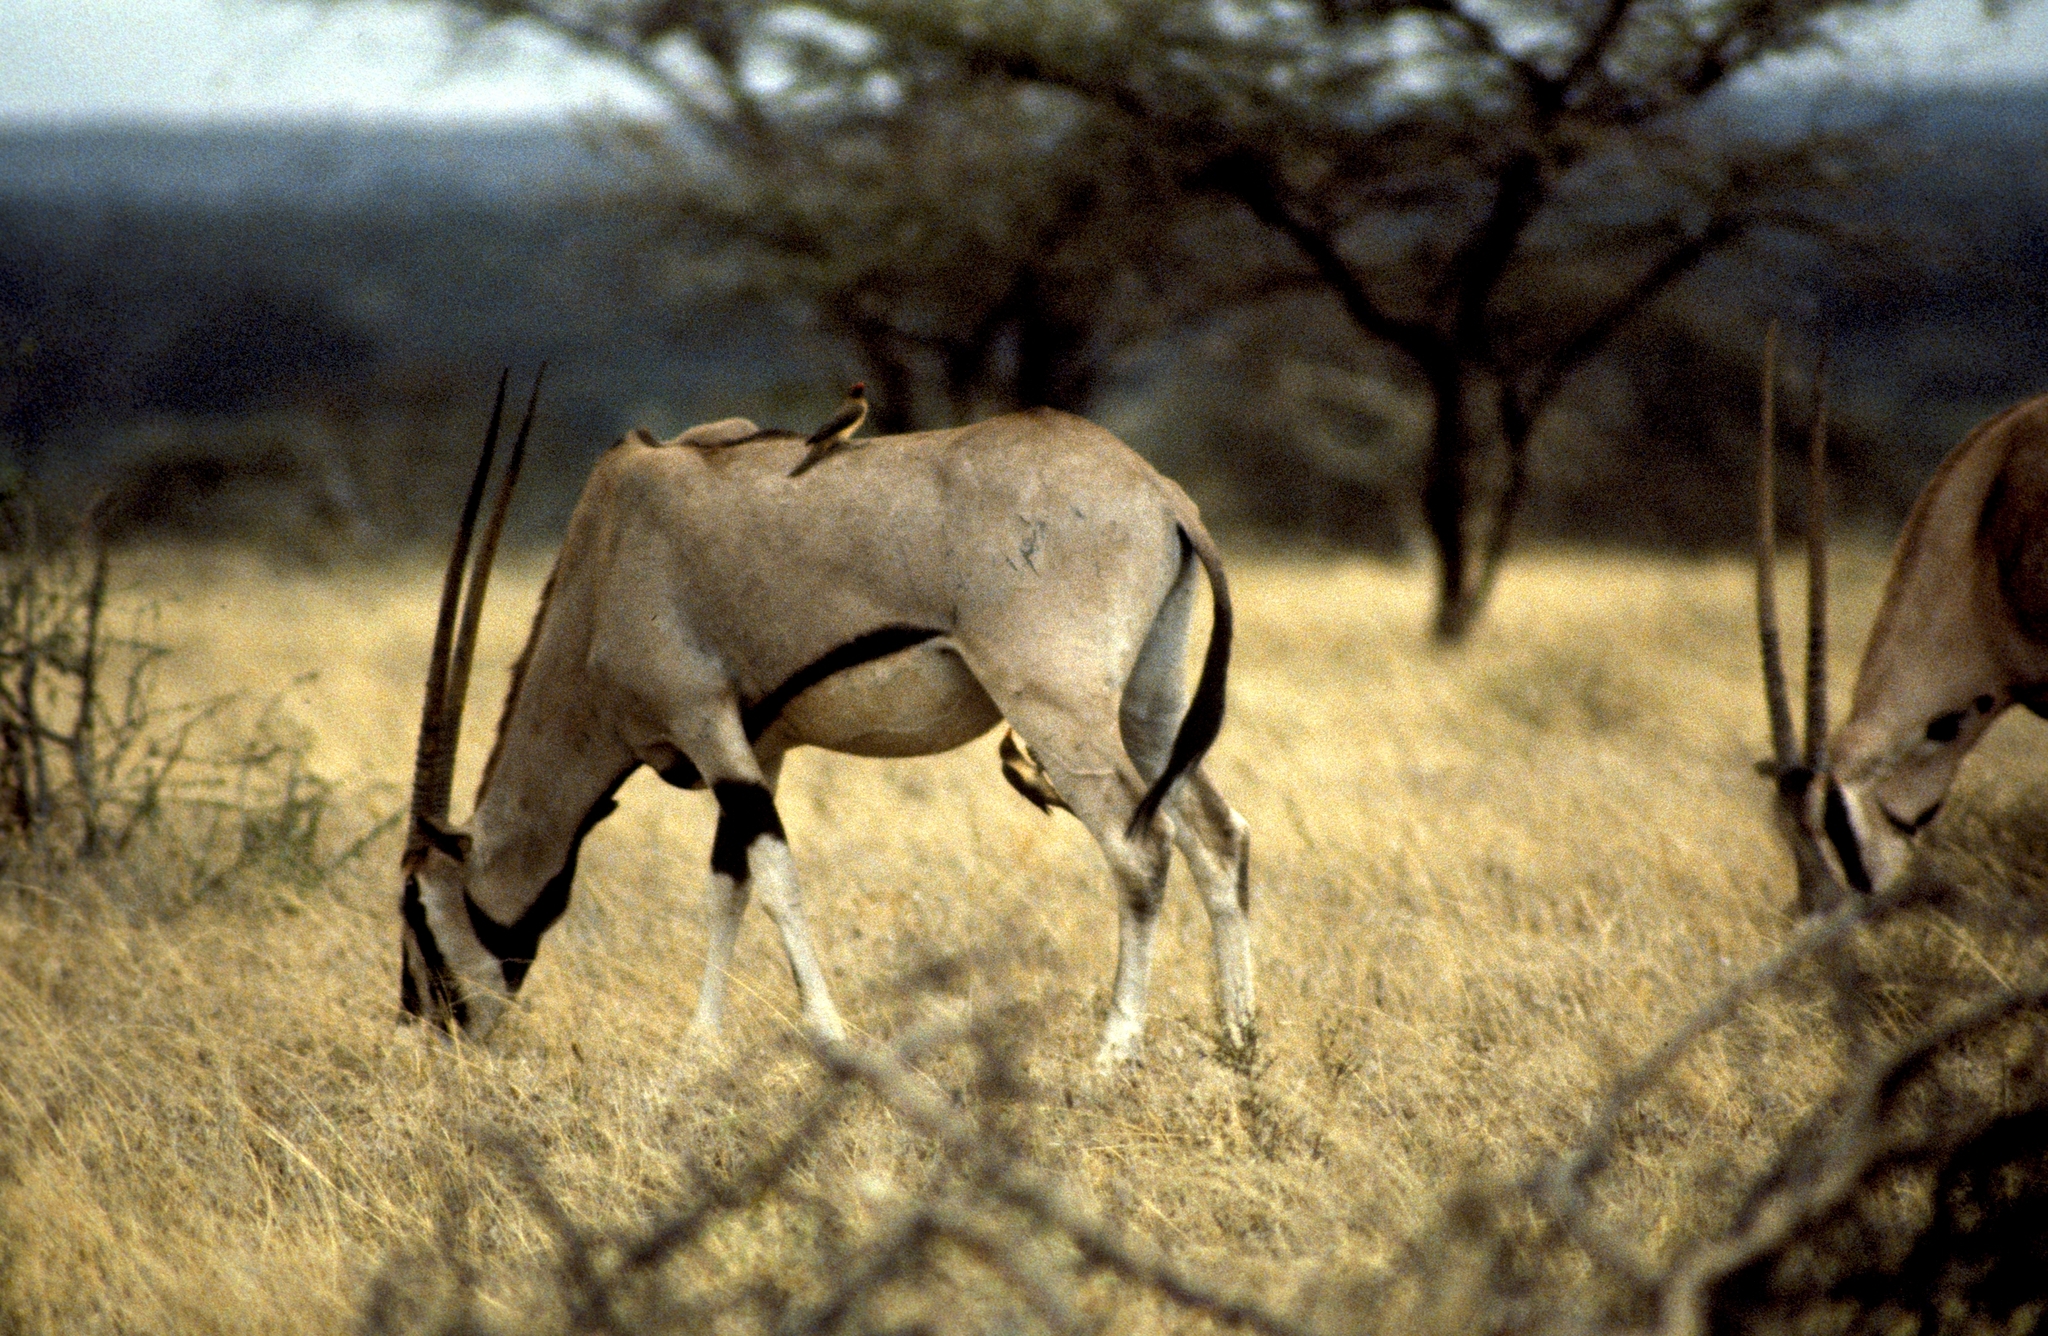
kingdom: Animalia
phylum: Chordata
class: Mammalia
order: Artiodactyla
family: Bovidae
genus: Oryx
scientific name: Oryx beisa
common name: Beisa
